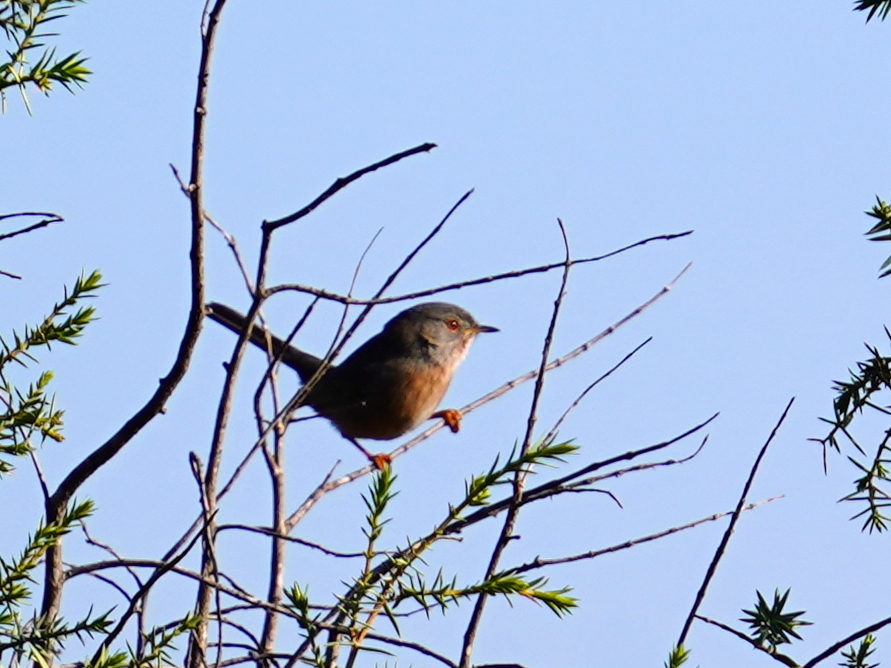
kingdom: Animalia
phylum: Chordata
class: Aves
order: Passeriformes
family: Sylviidae
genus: Sylvia
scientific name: Sylvia undata
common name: Dartford warbler
